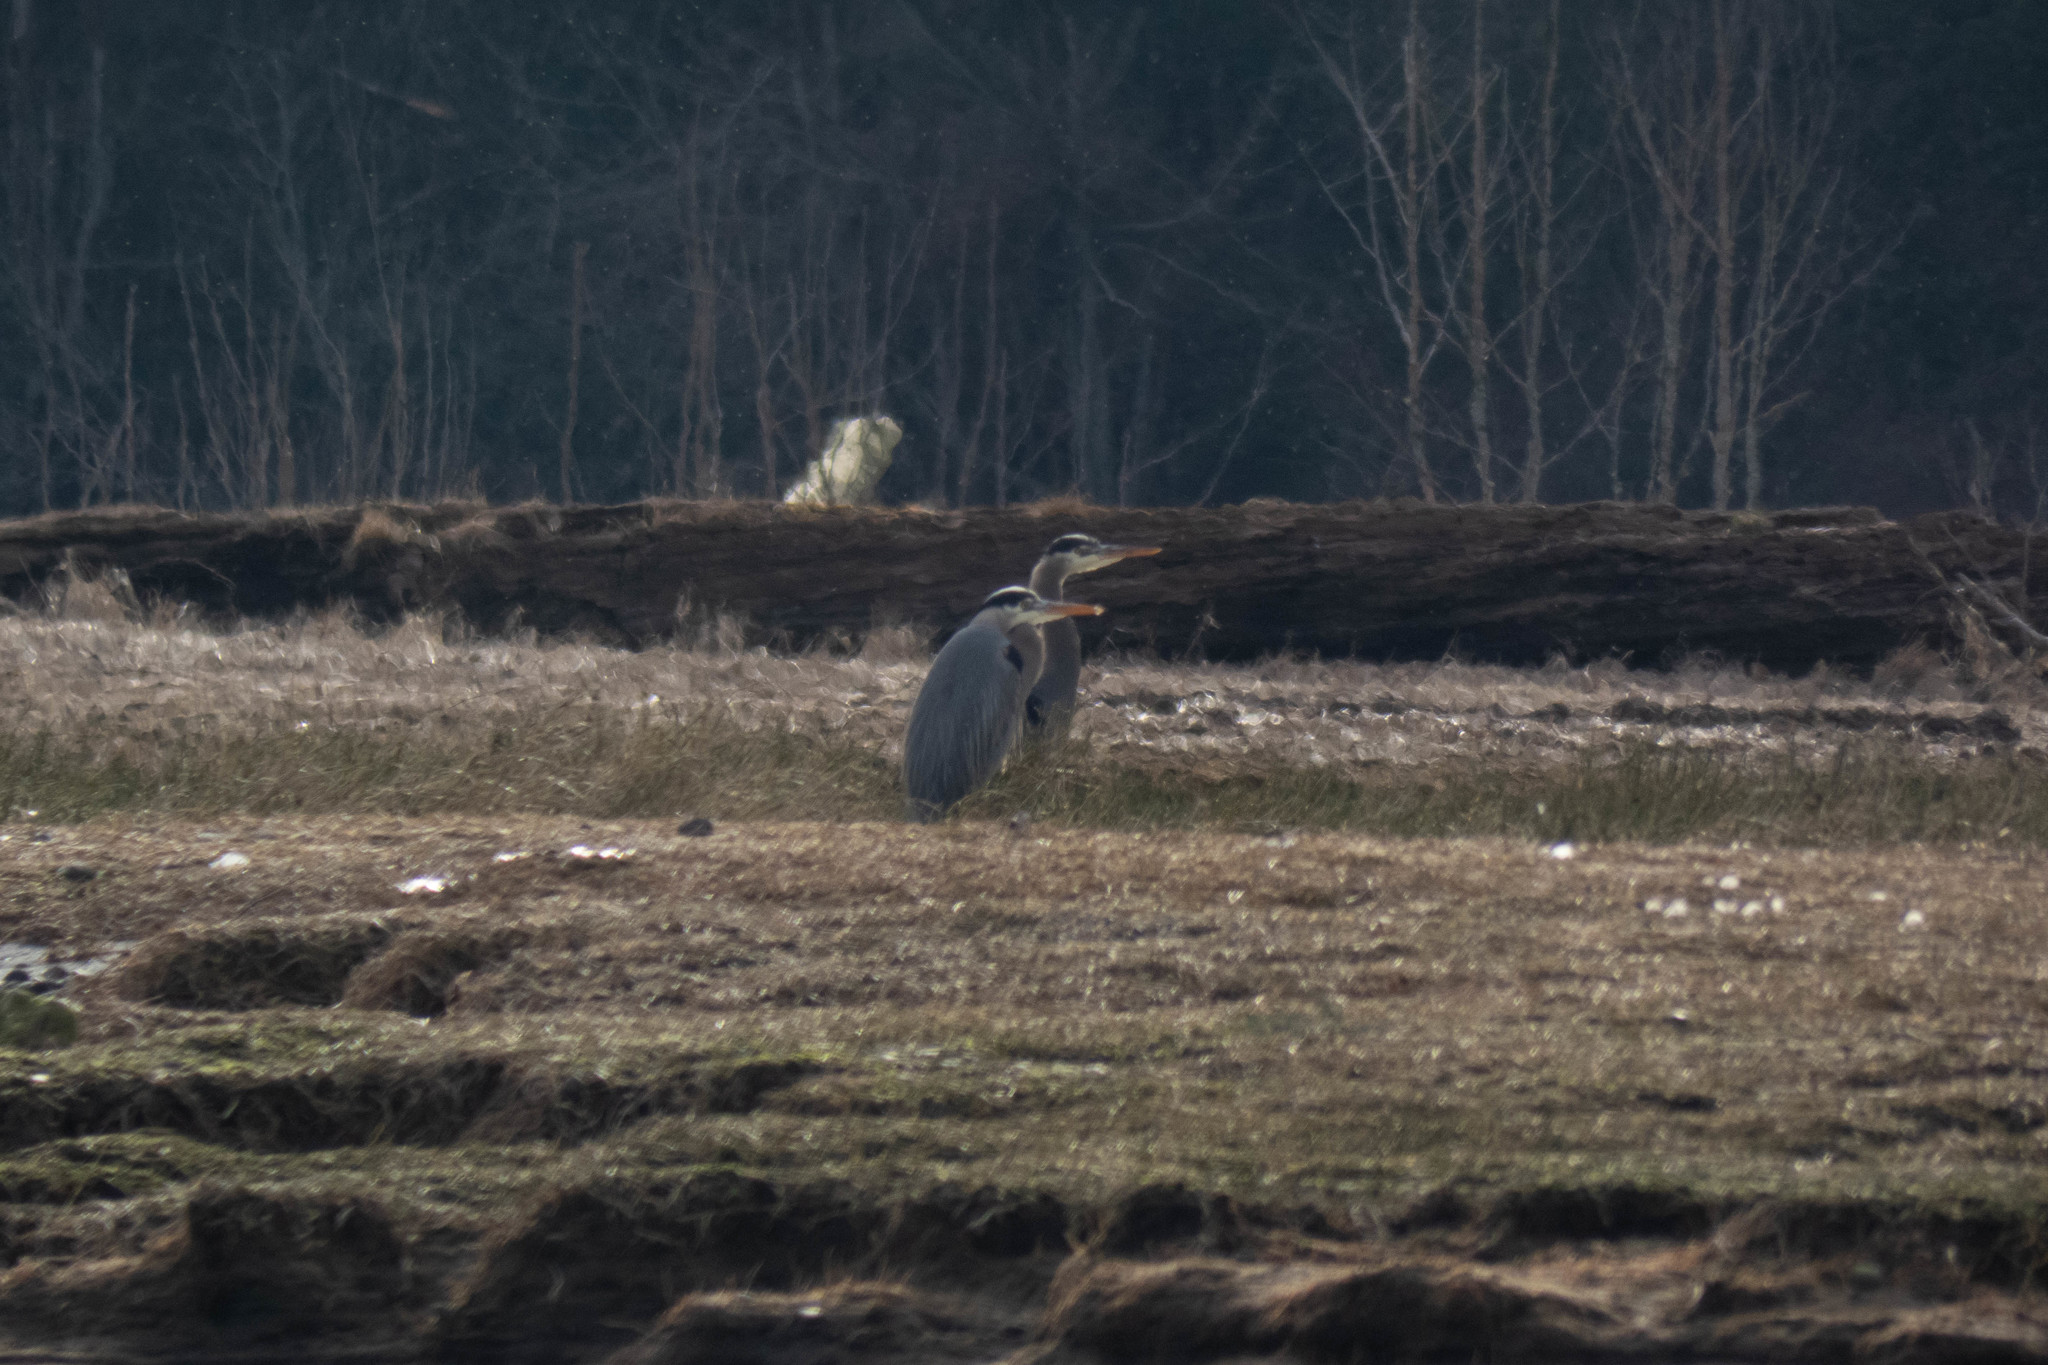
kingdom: Animalia
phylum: Chordata
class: Aves
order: Pelecaniformes
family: Ardeidae
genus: Ardea
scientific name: Ardea herodias
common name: Great blue heron
